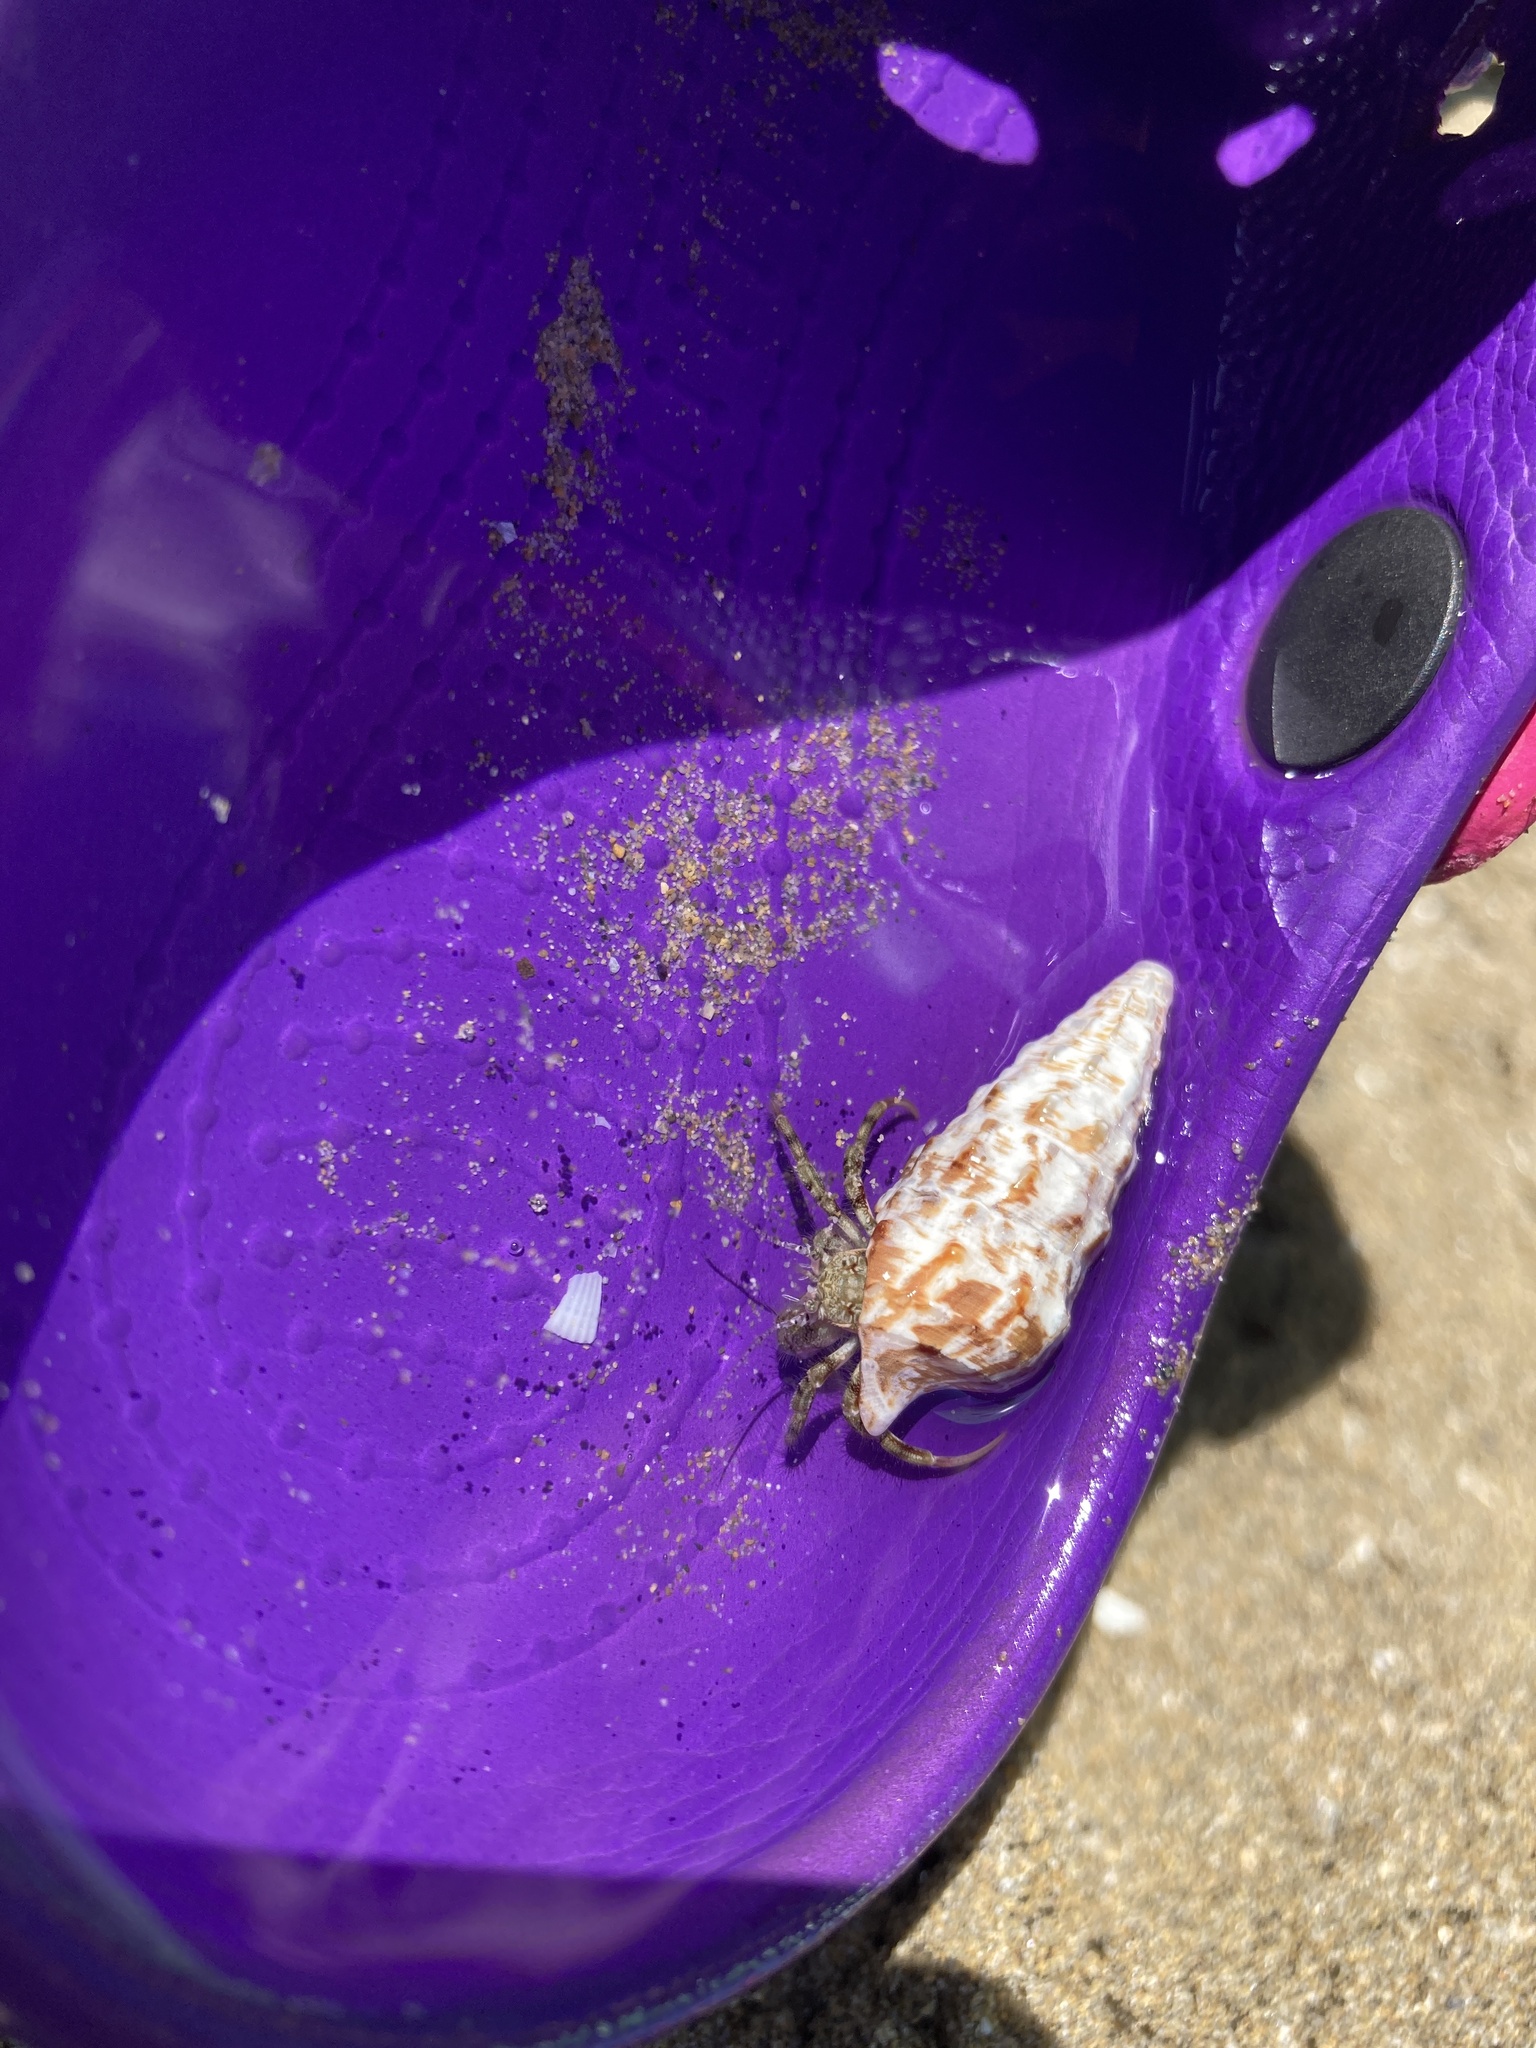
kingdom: Animalia
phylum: Arthropoda
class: Malacostraca
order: Decapoda
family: Diogenidae
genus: Diogenes
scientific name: Diogenes pugilator
